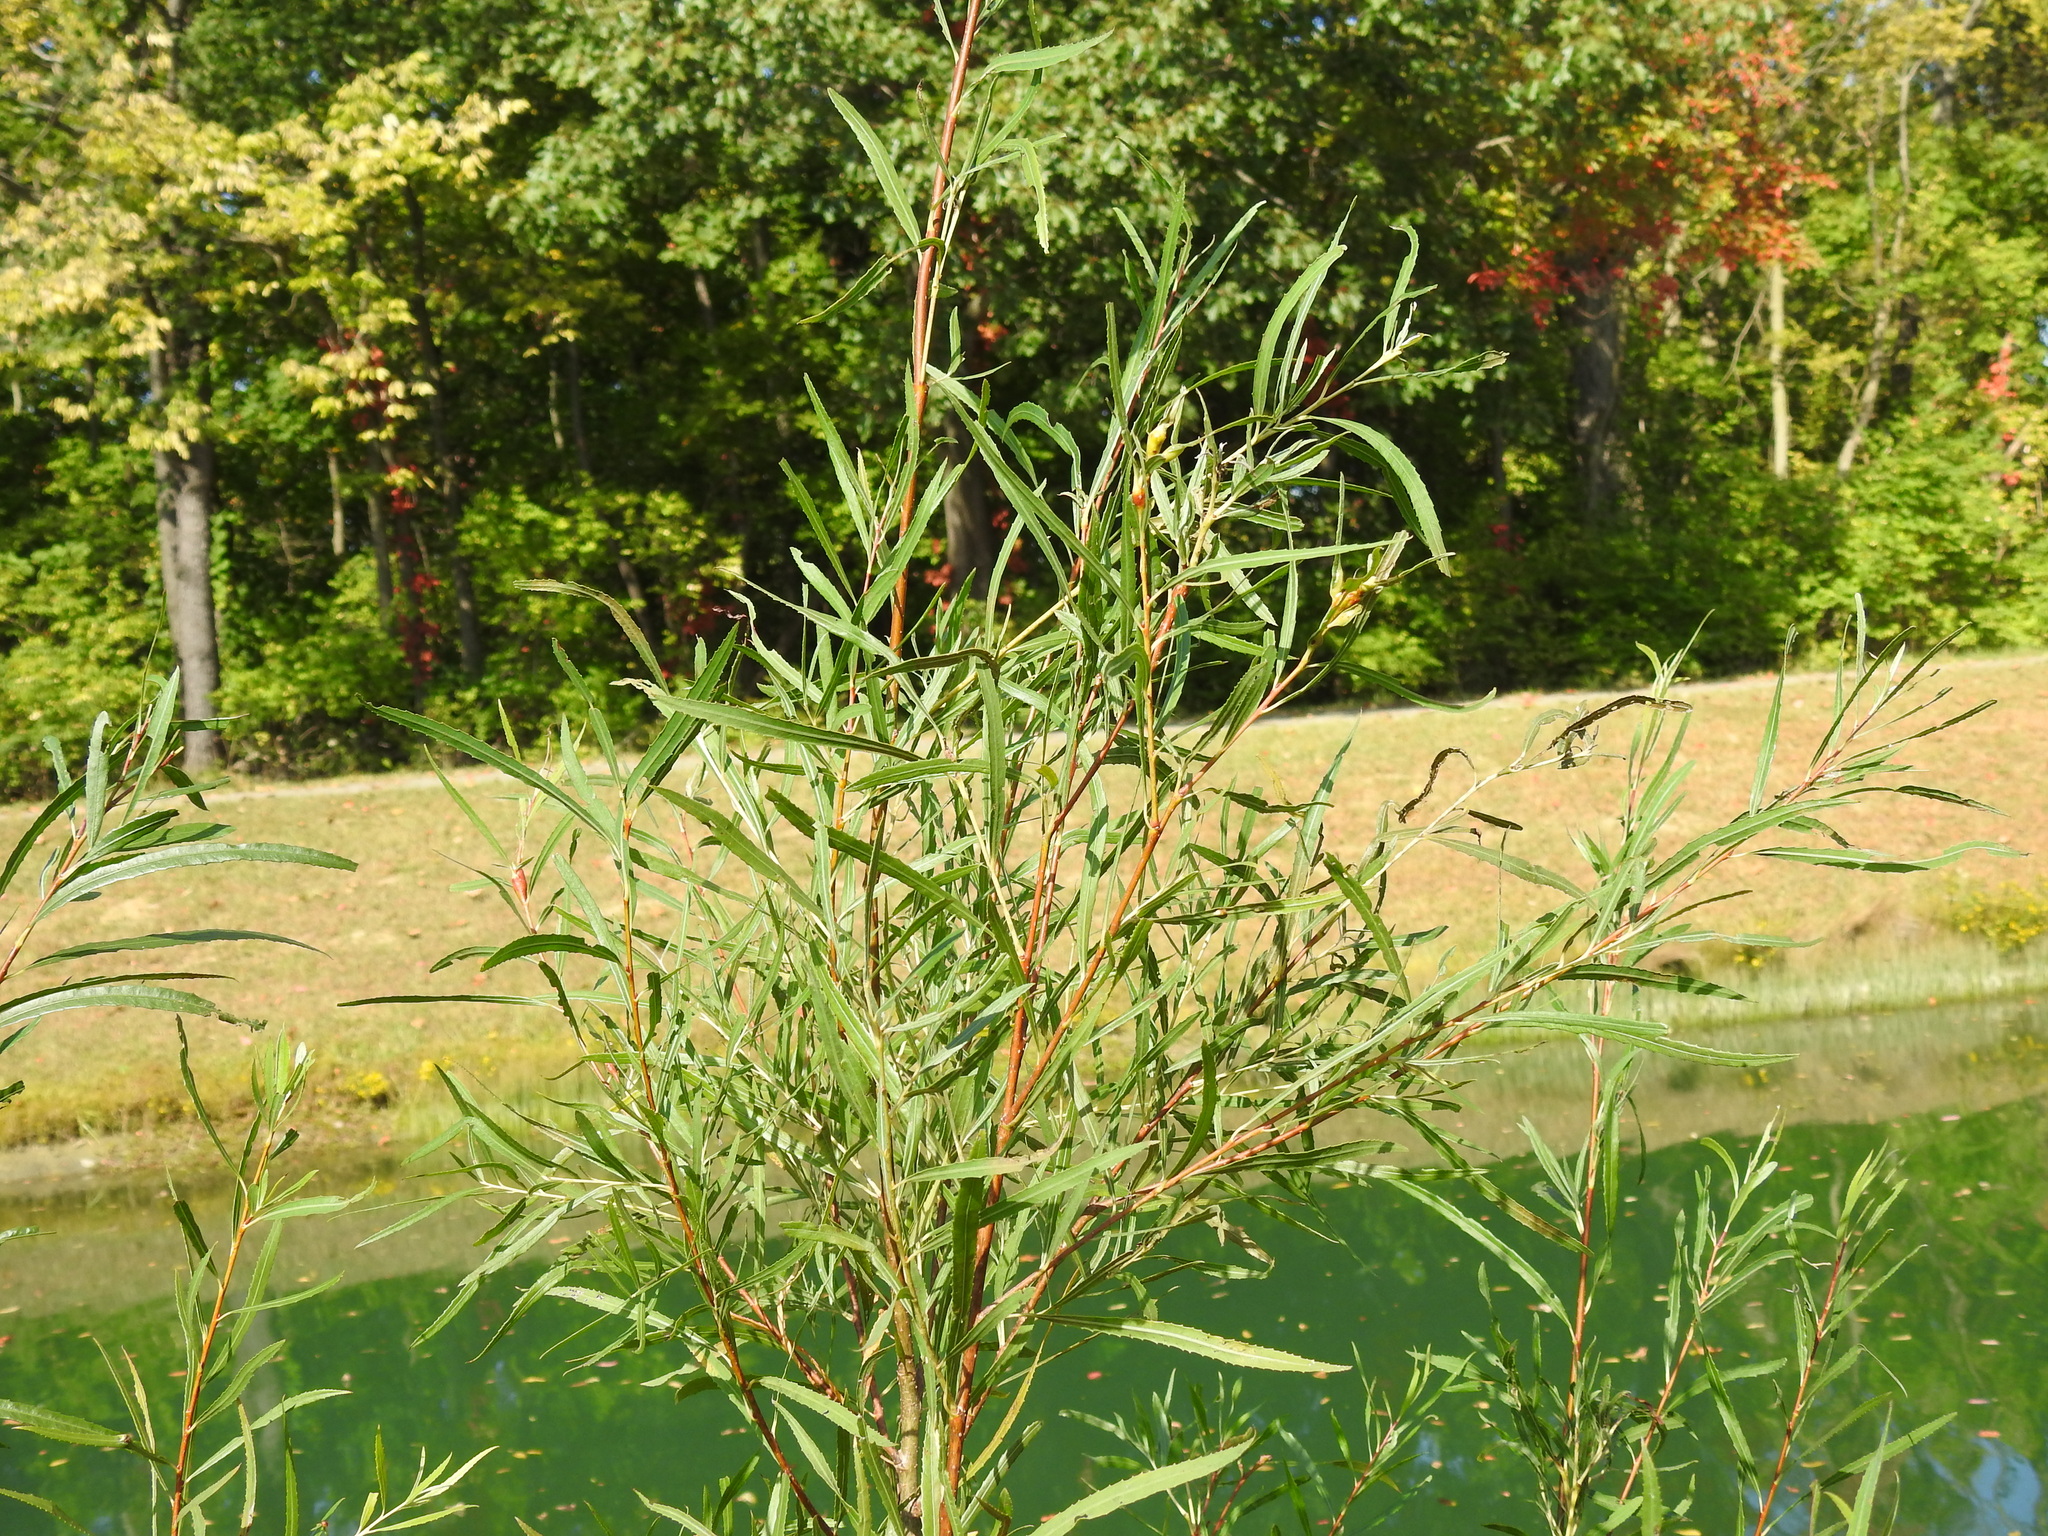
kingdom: Plantae
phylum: Tracheophyta
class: Magnoliopsida
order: Malpighiales
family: Salicaceae
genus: Salix
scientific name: Salix interior
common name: Sandbar willow
